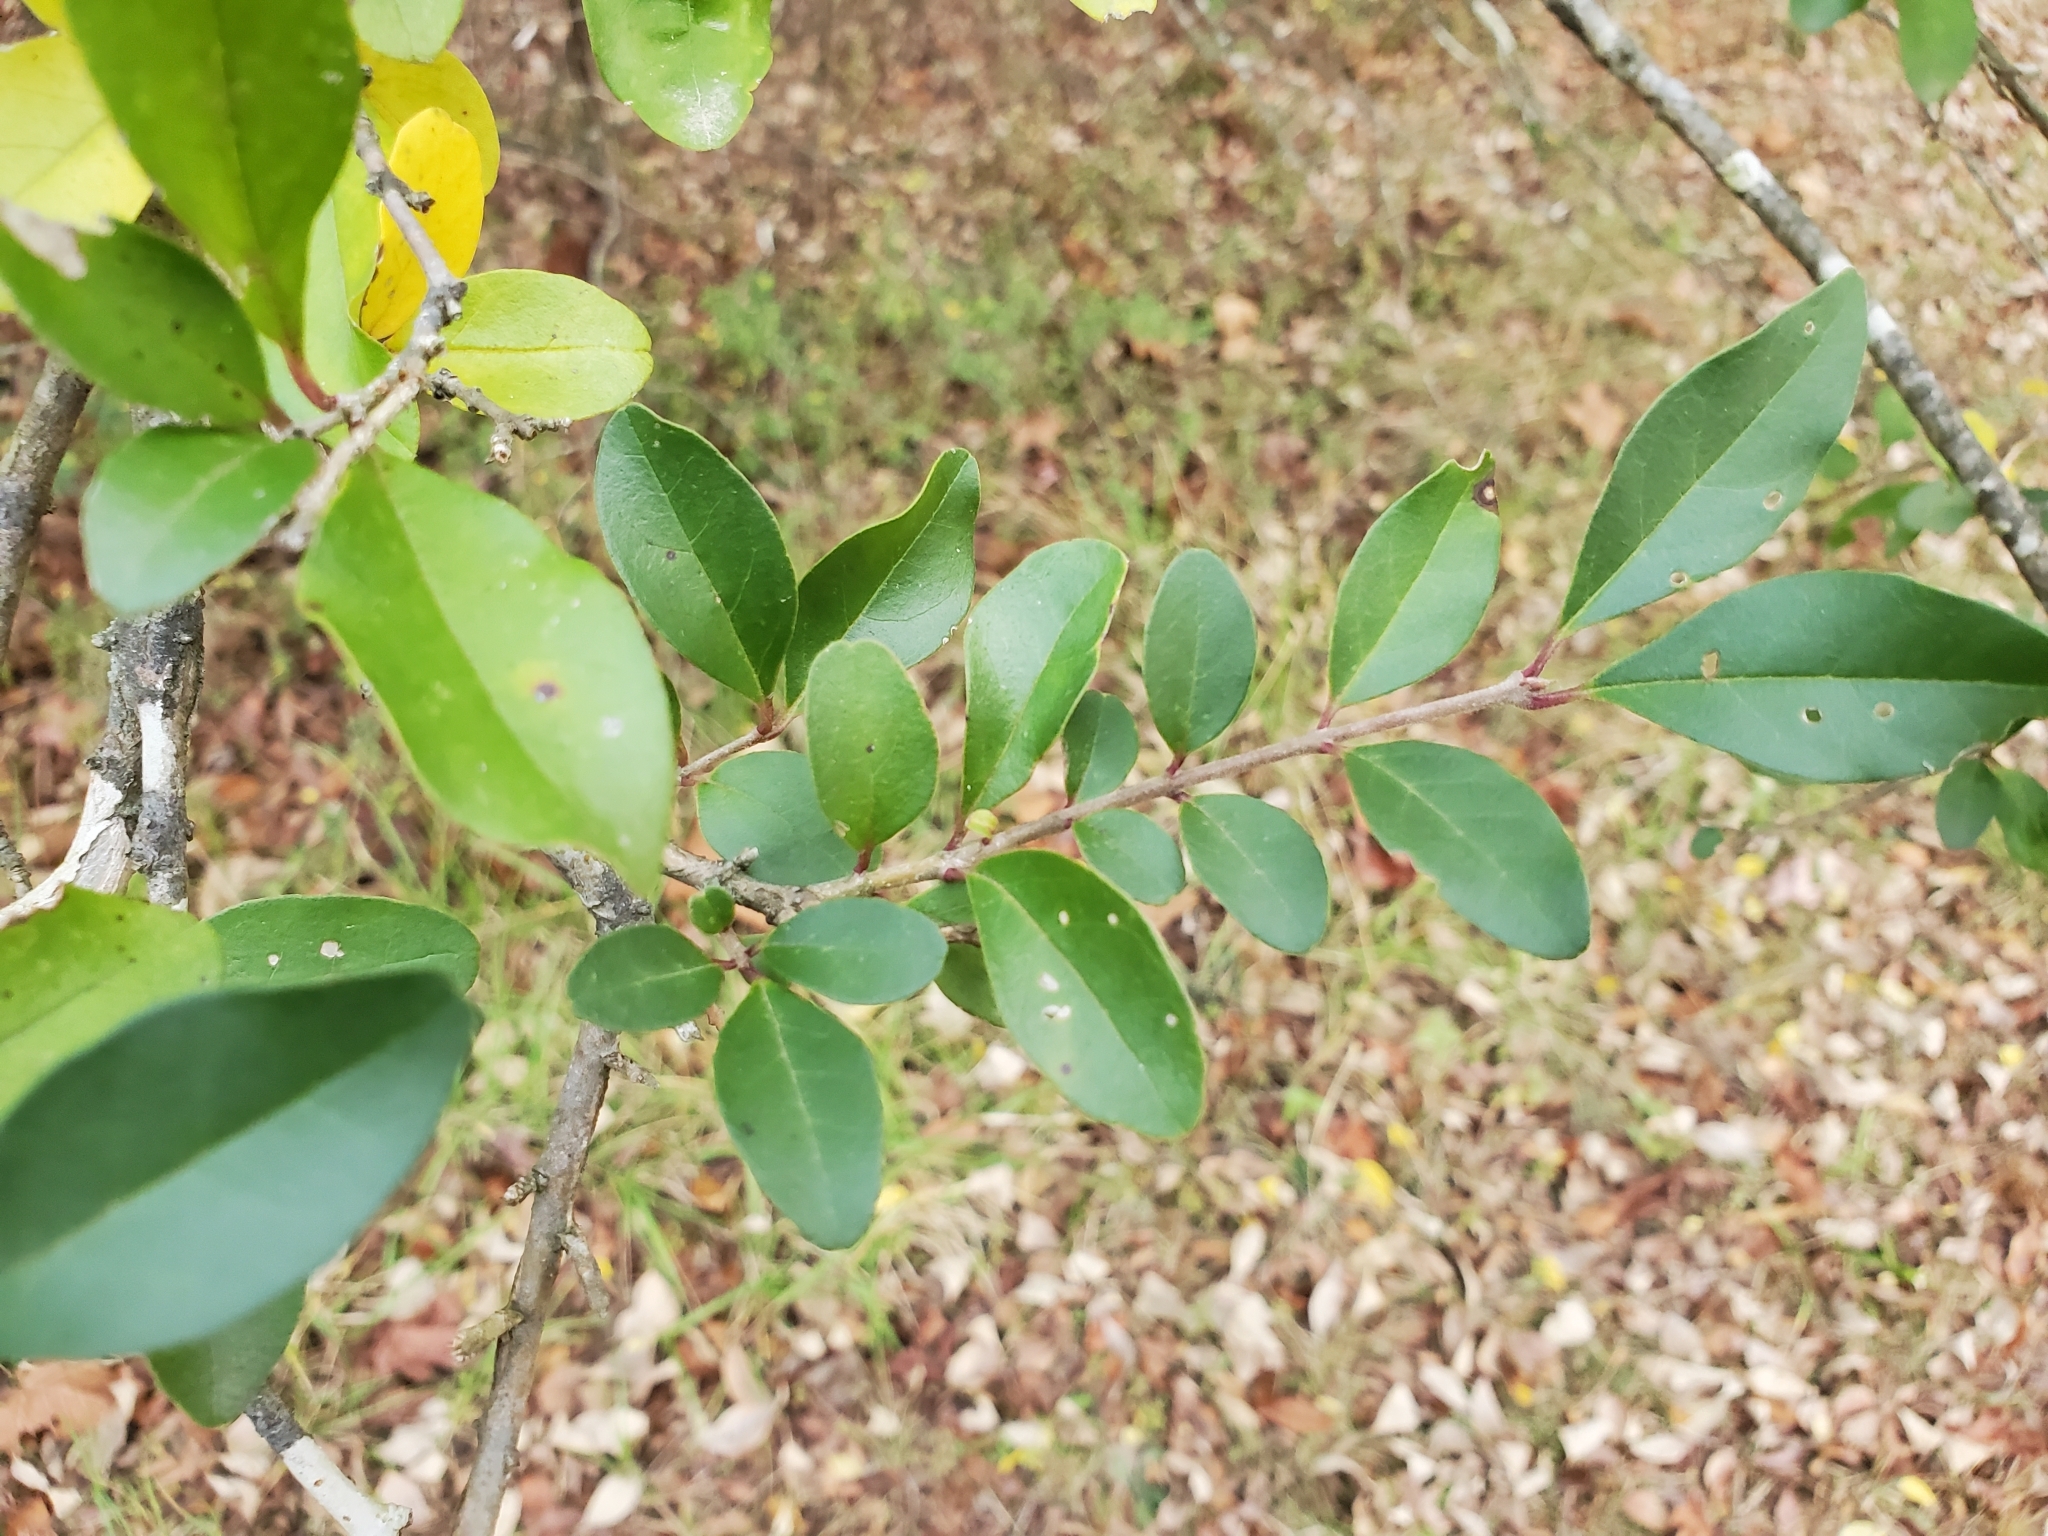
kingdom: Plantae
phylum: Tracheophyta
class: Magnoliopsida
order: Lamiales
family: Oleaceae
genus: Ligustrum
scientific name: Ligustrum sinense
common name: Chinese privet
